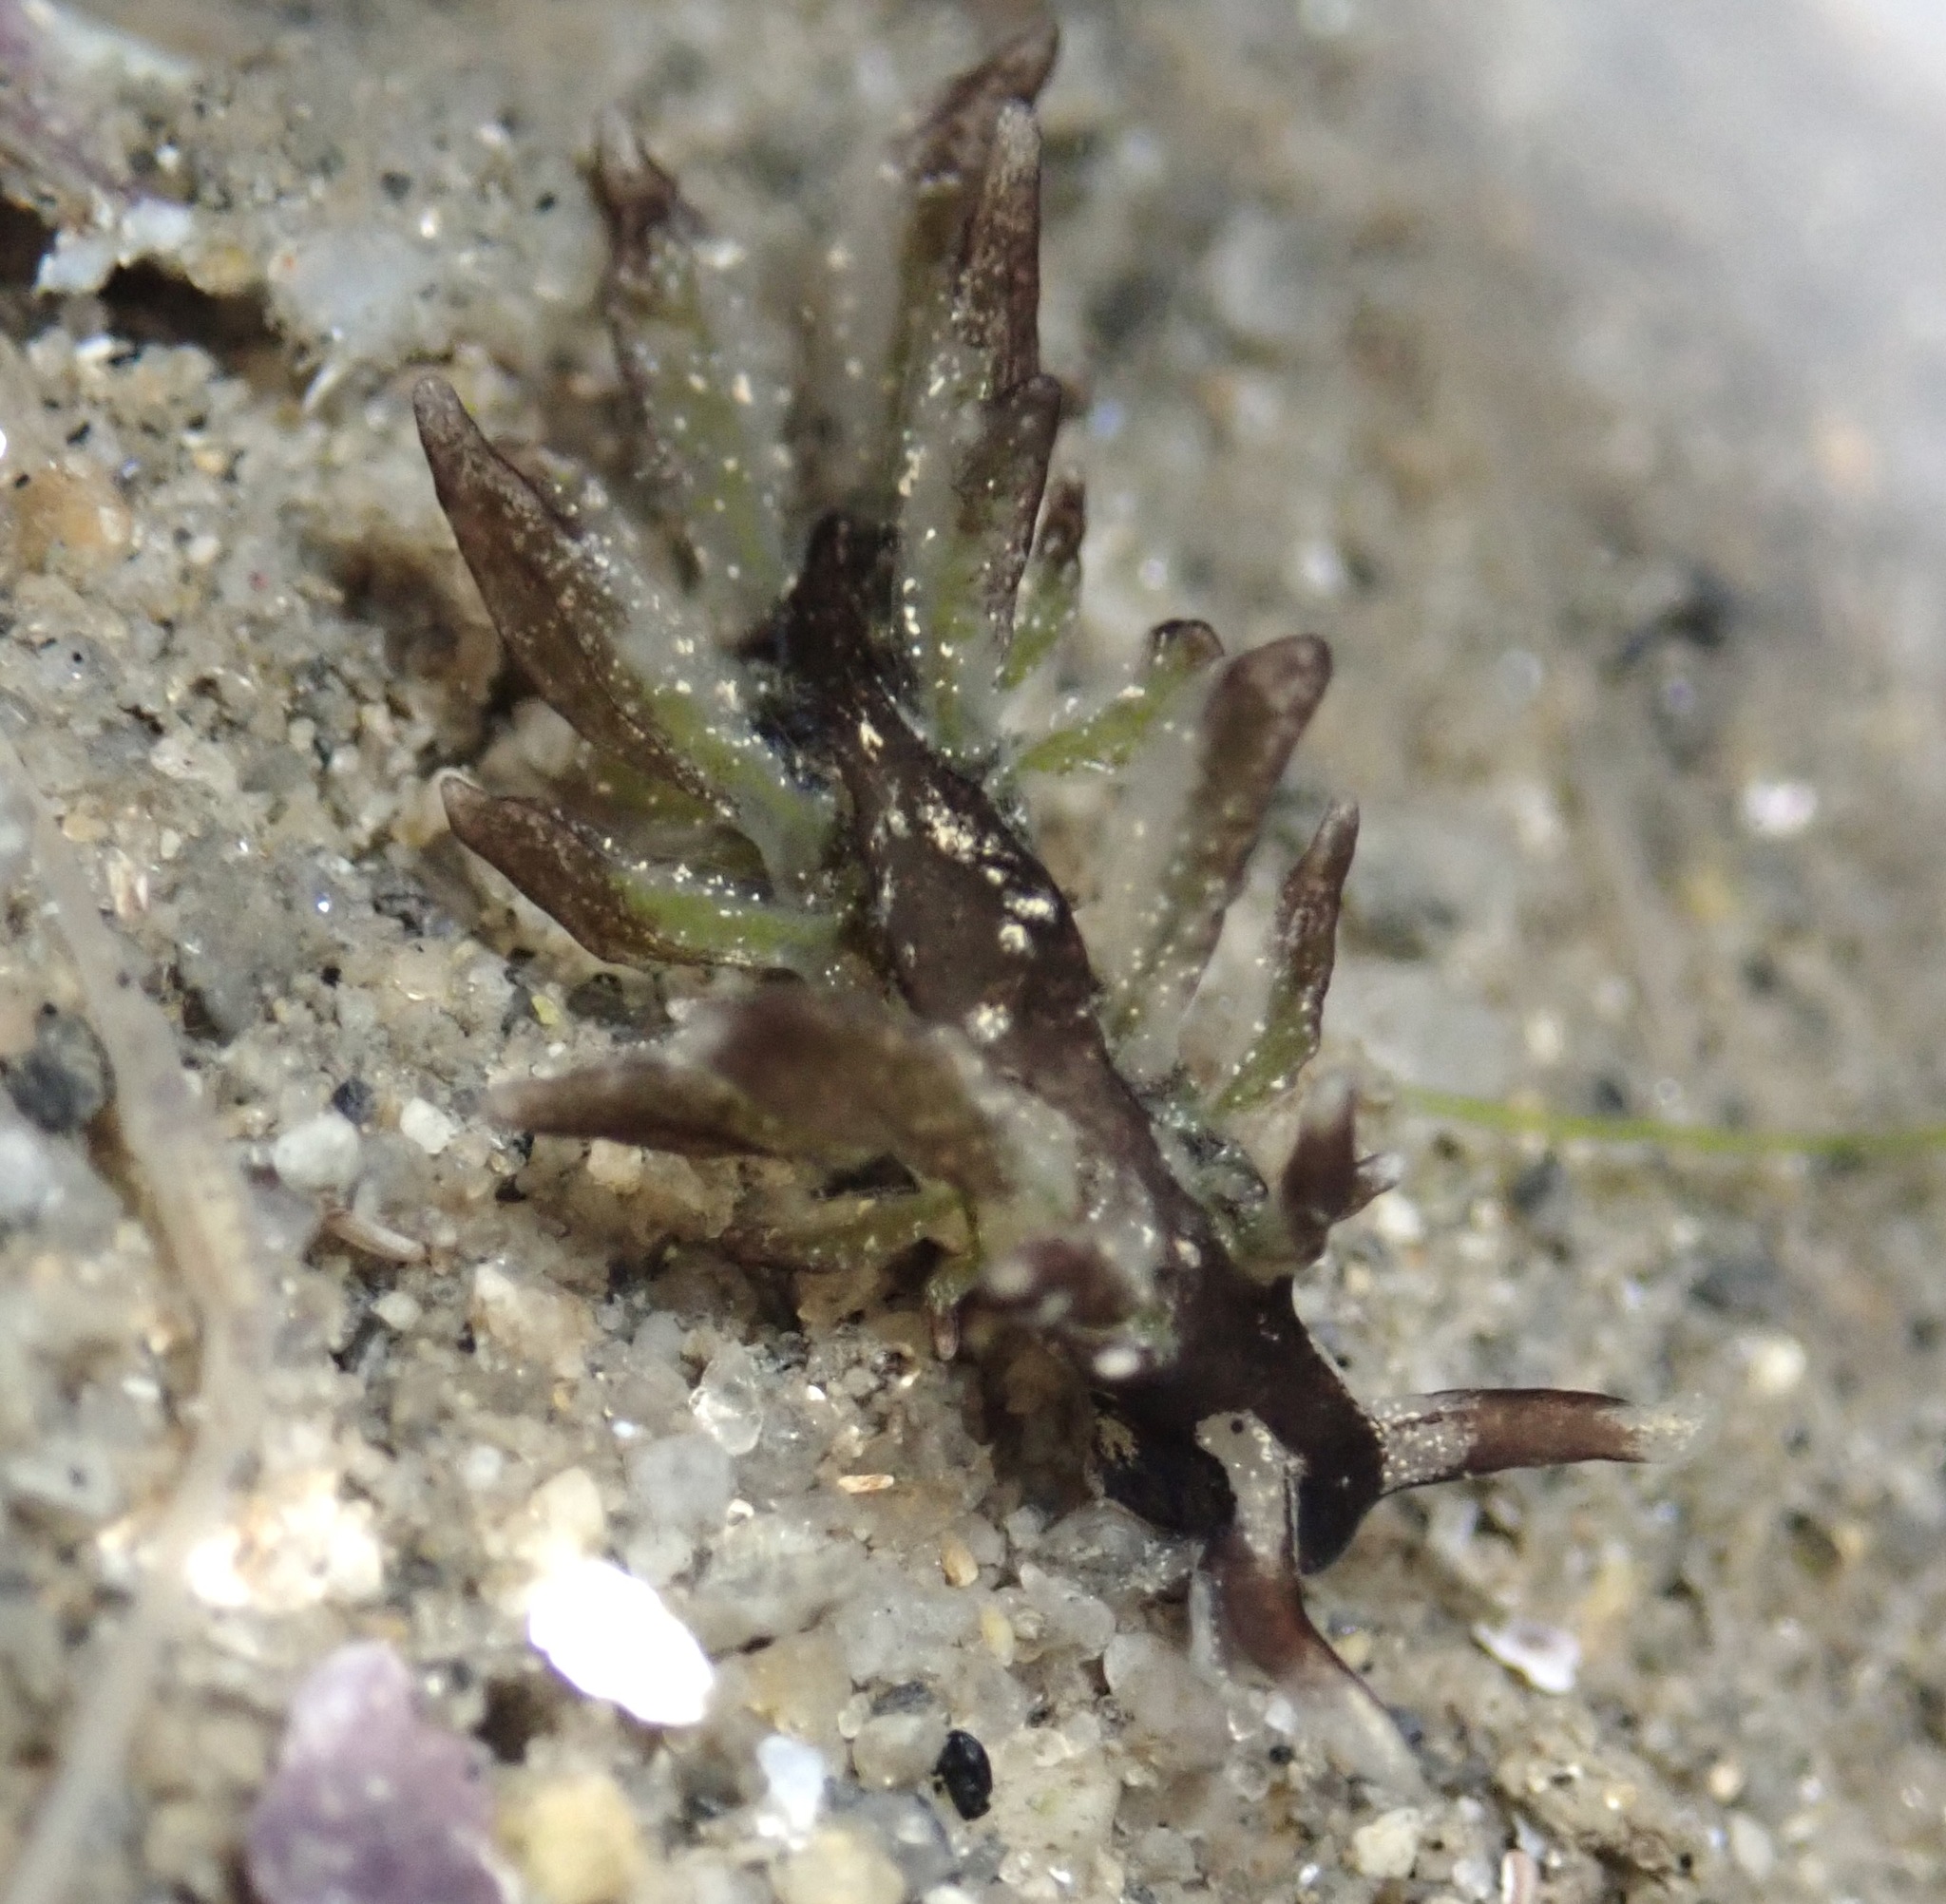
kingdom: Animalia
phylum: Mollusca
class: Gastropoda
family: Hermaeidae
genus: Aplysiopsis
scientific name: Aplysiopsis enteromorphae
